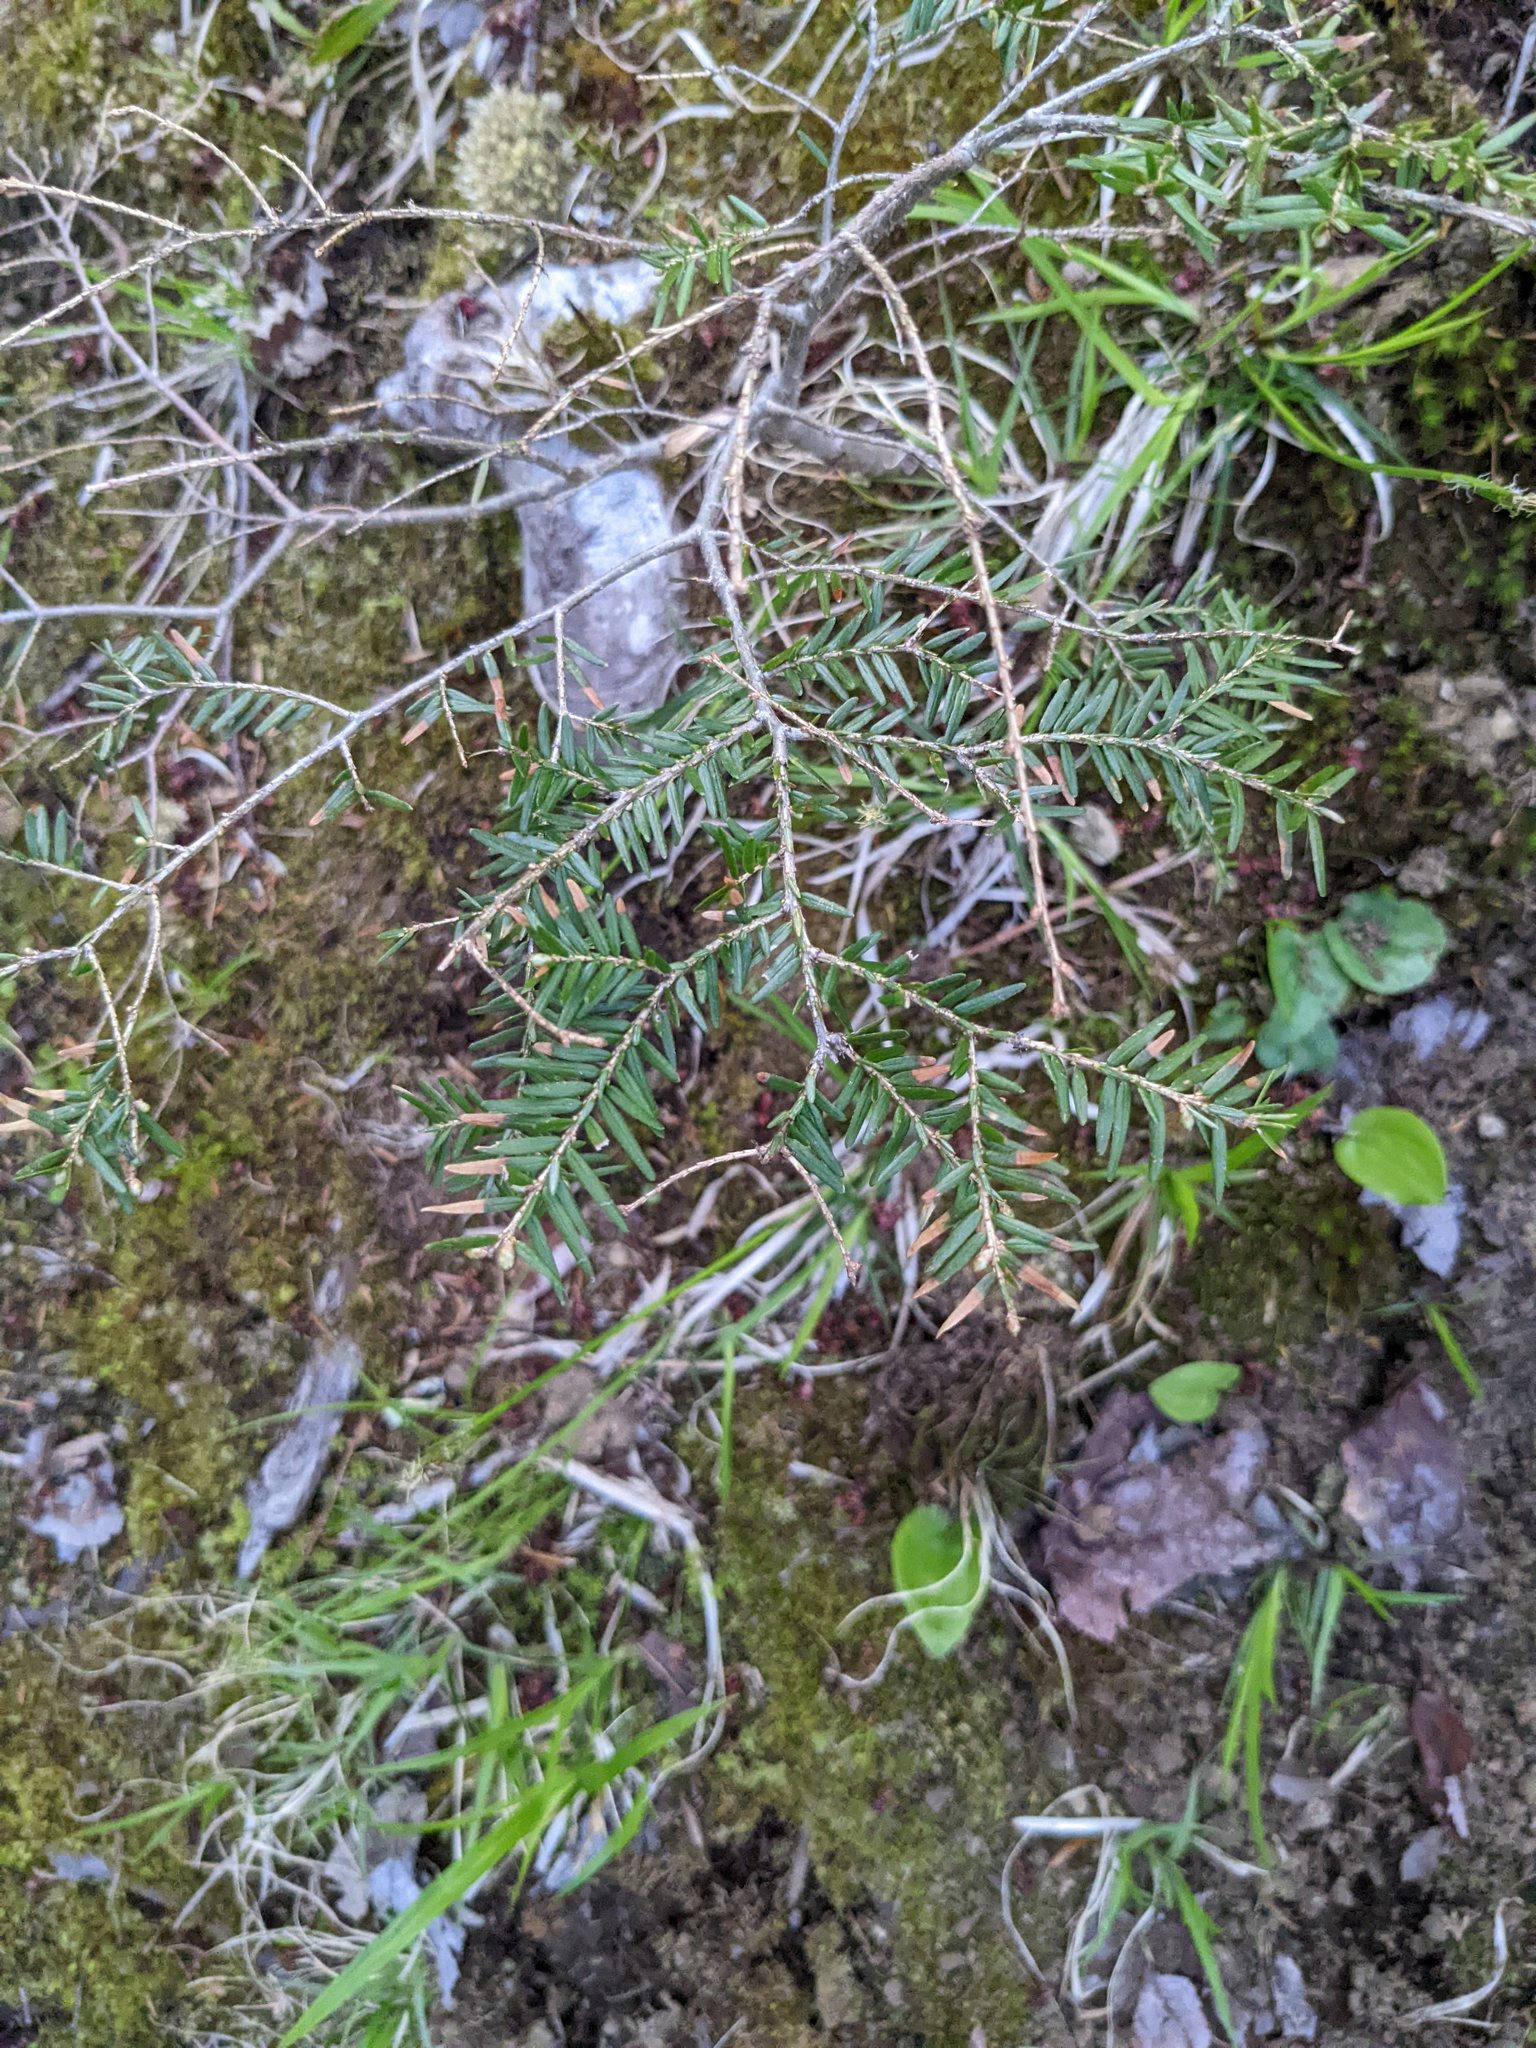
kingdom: Plantae
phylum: Tracheophyta
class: Pinopsida
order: Pinales
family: Pinaceae
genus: Tsuga
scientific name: Tsuga canadensis
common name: Eastern hemlock
